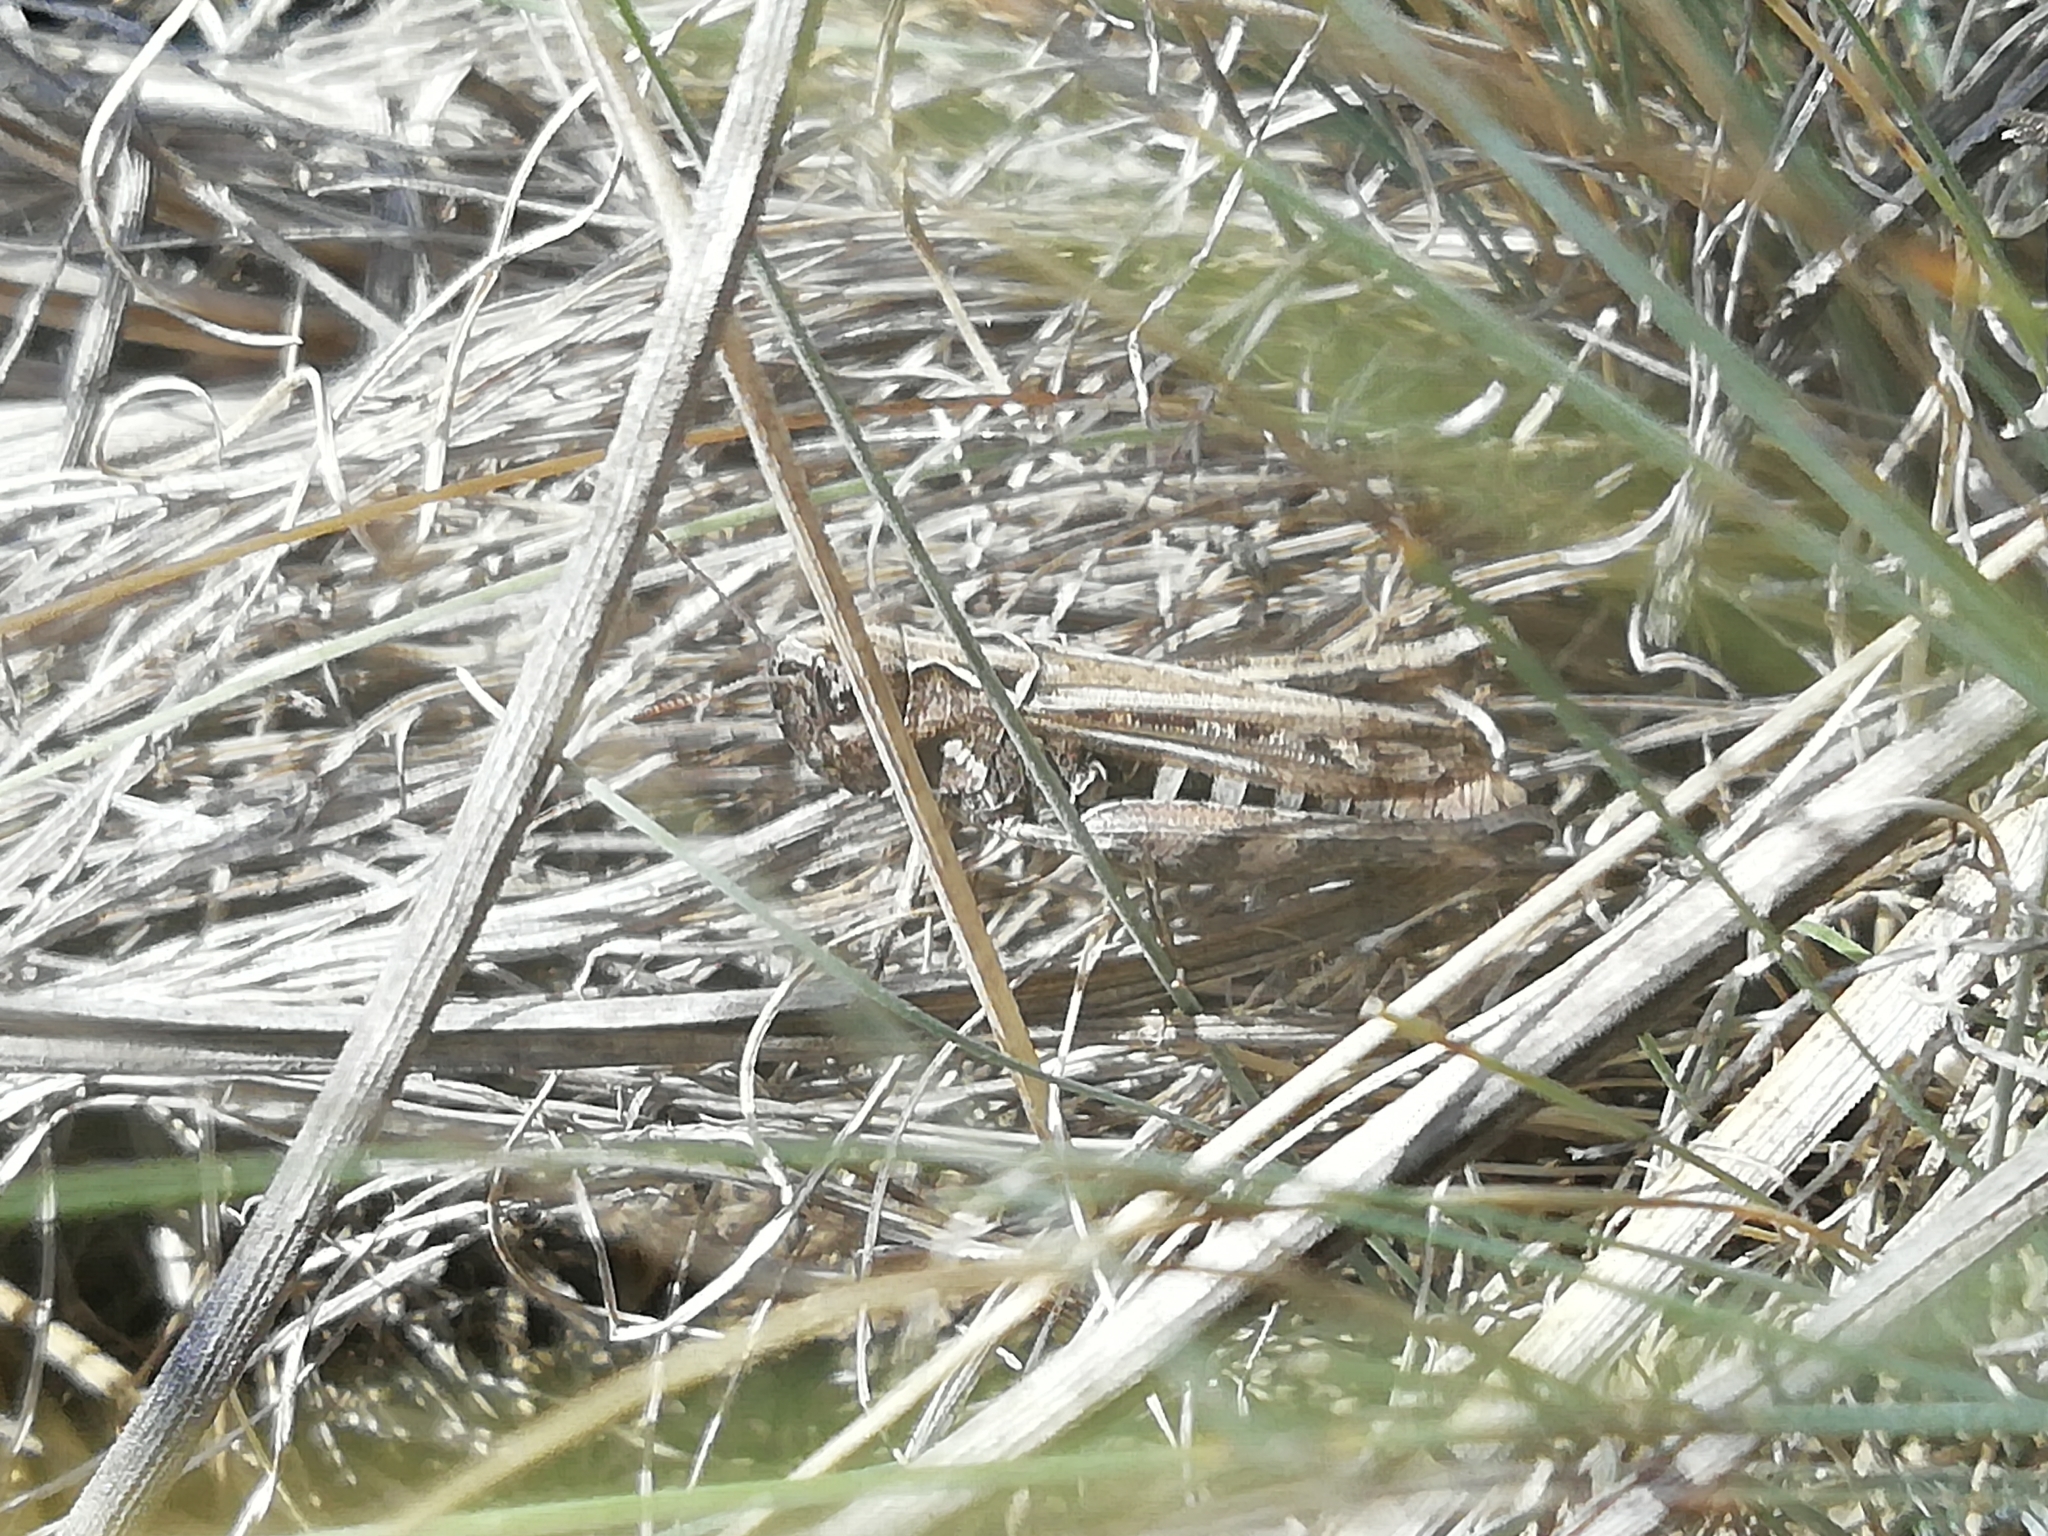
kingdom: Animalia
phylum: Arthropoda
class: Insecta
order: Orthoptera
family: Acrididae
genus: Omocestus
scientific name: Omocestus haemorrhoidalis
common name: Orange-tipped grasshopper
